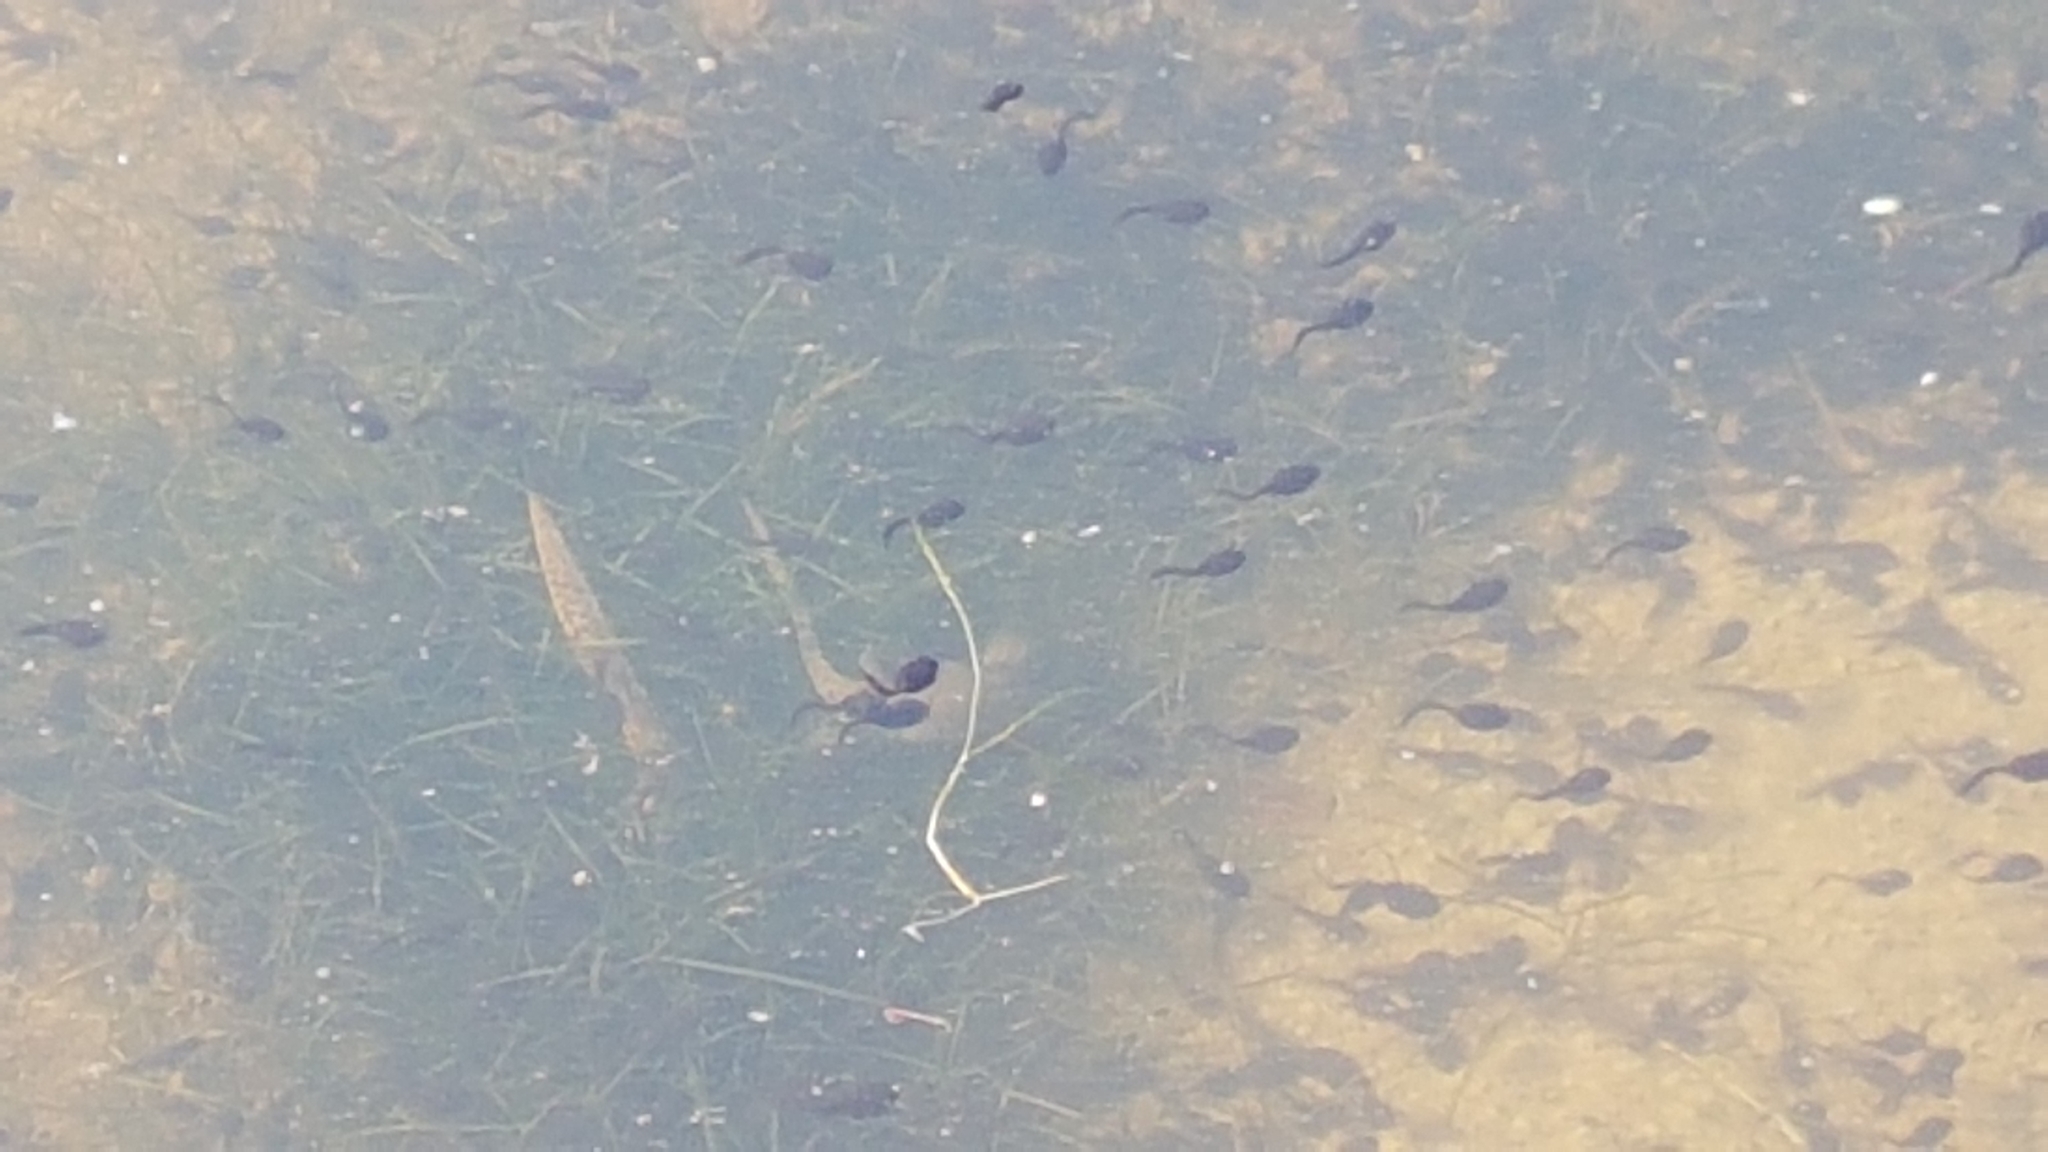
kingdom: Animalia
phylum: Chordata
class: Amphibia
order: Anura
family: Bufonidae
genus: Bufo
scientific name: Bufo bufo
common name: Common toad
